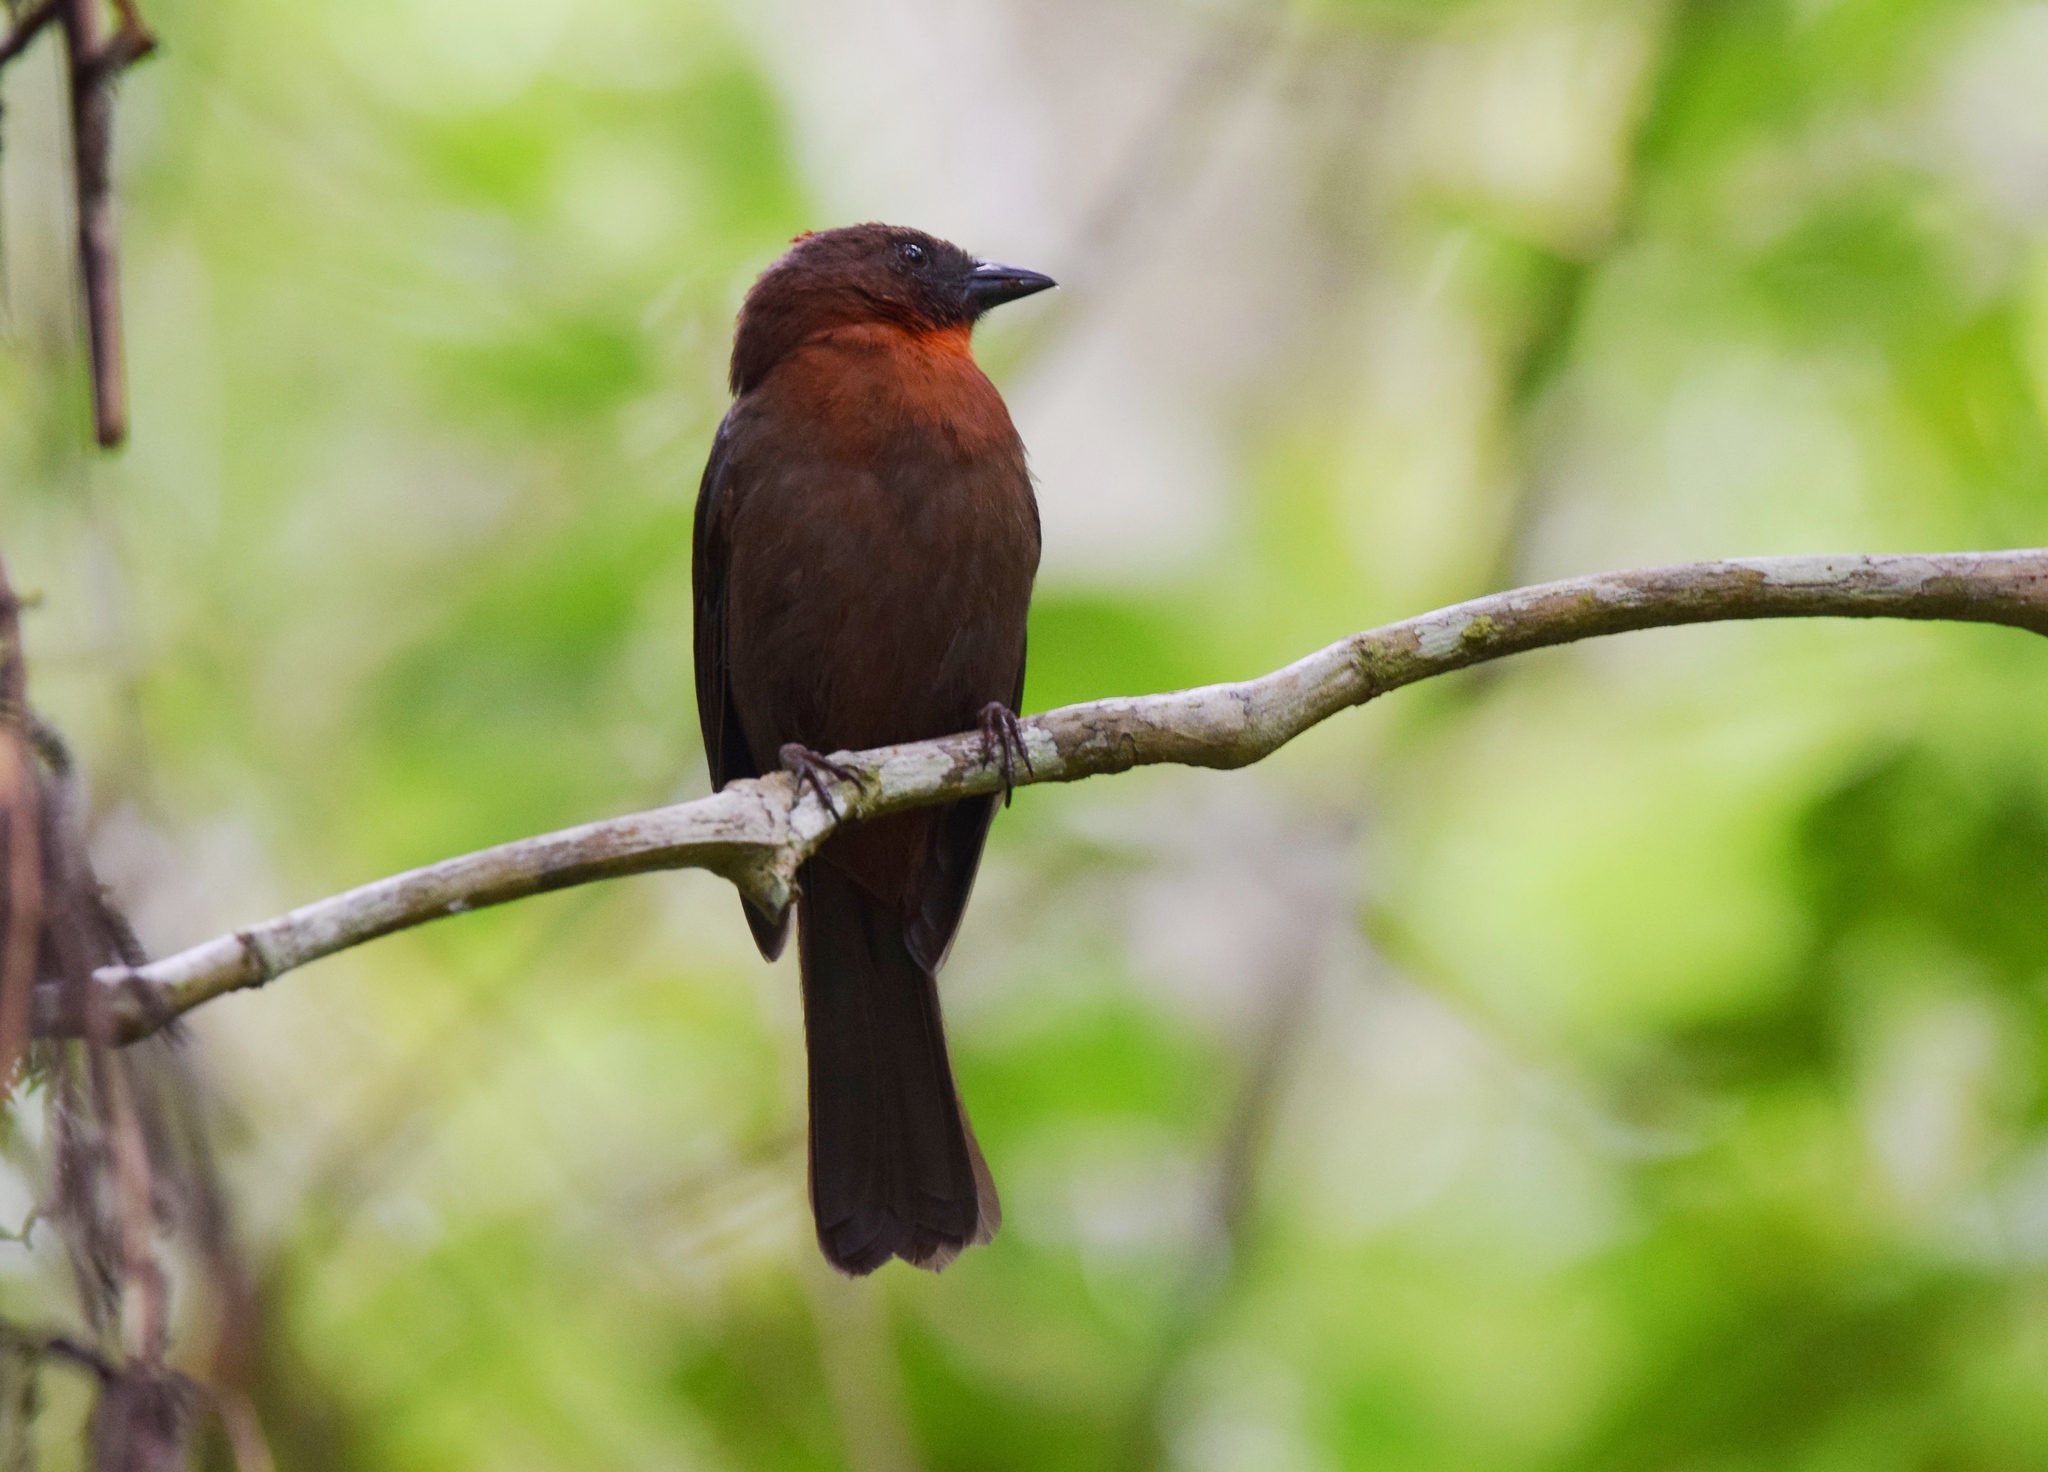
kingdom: Animalia
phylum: Chordata
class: Aves
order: Passeriformes
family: Cardinalidae
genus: Habia
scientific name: Habia fuscicauda
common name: Red-throated ant-tanager
